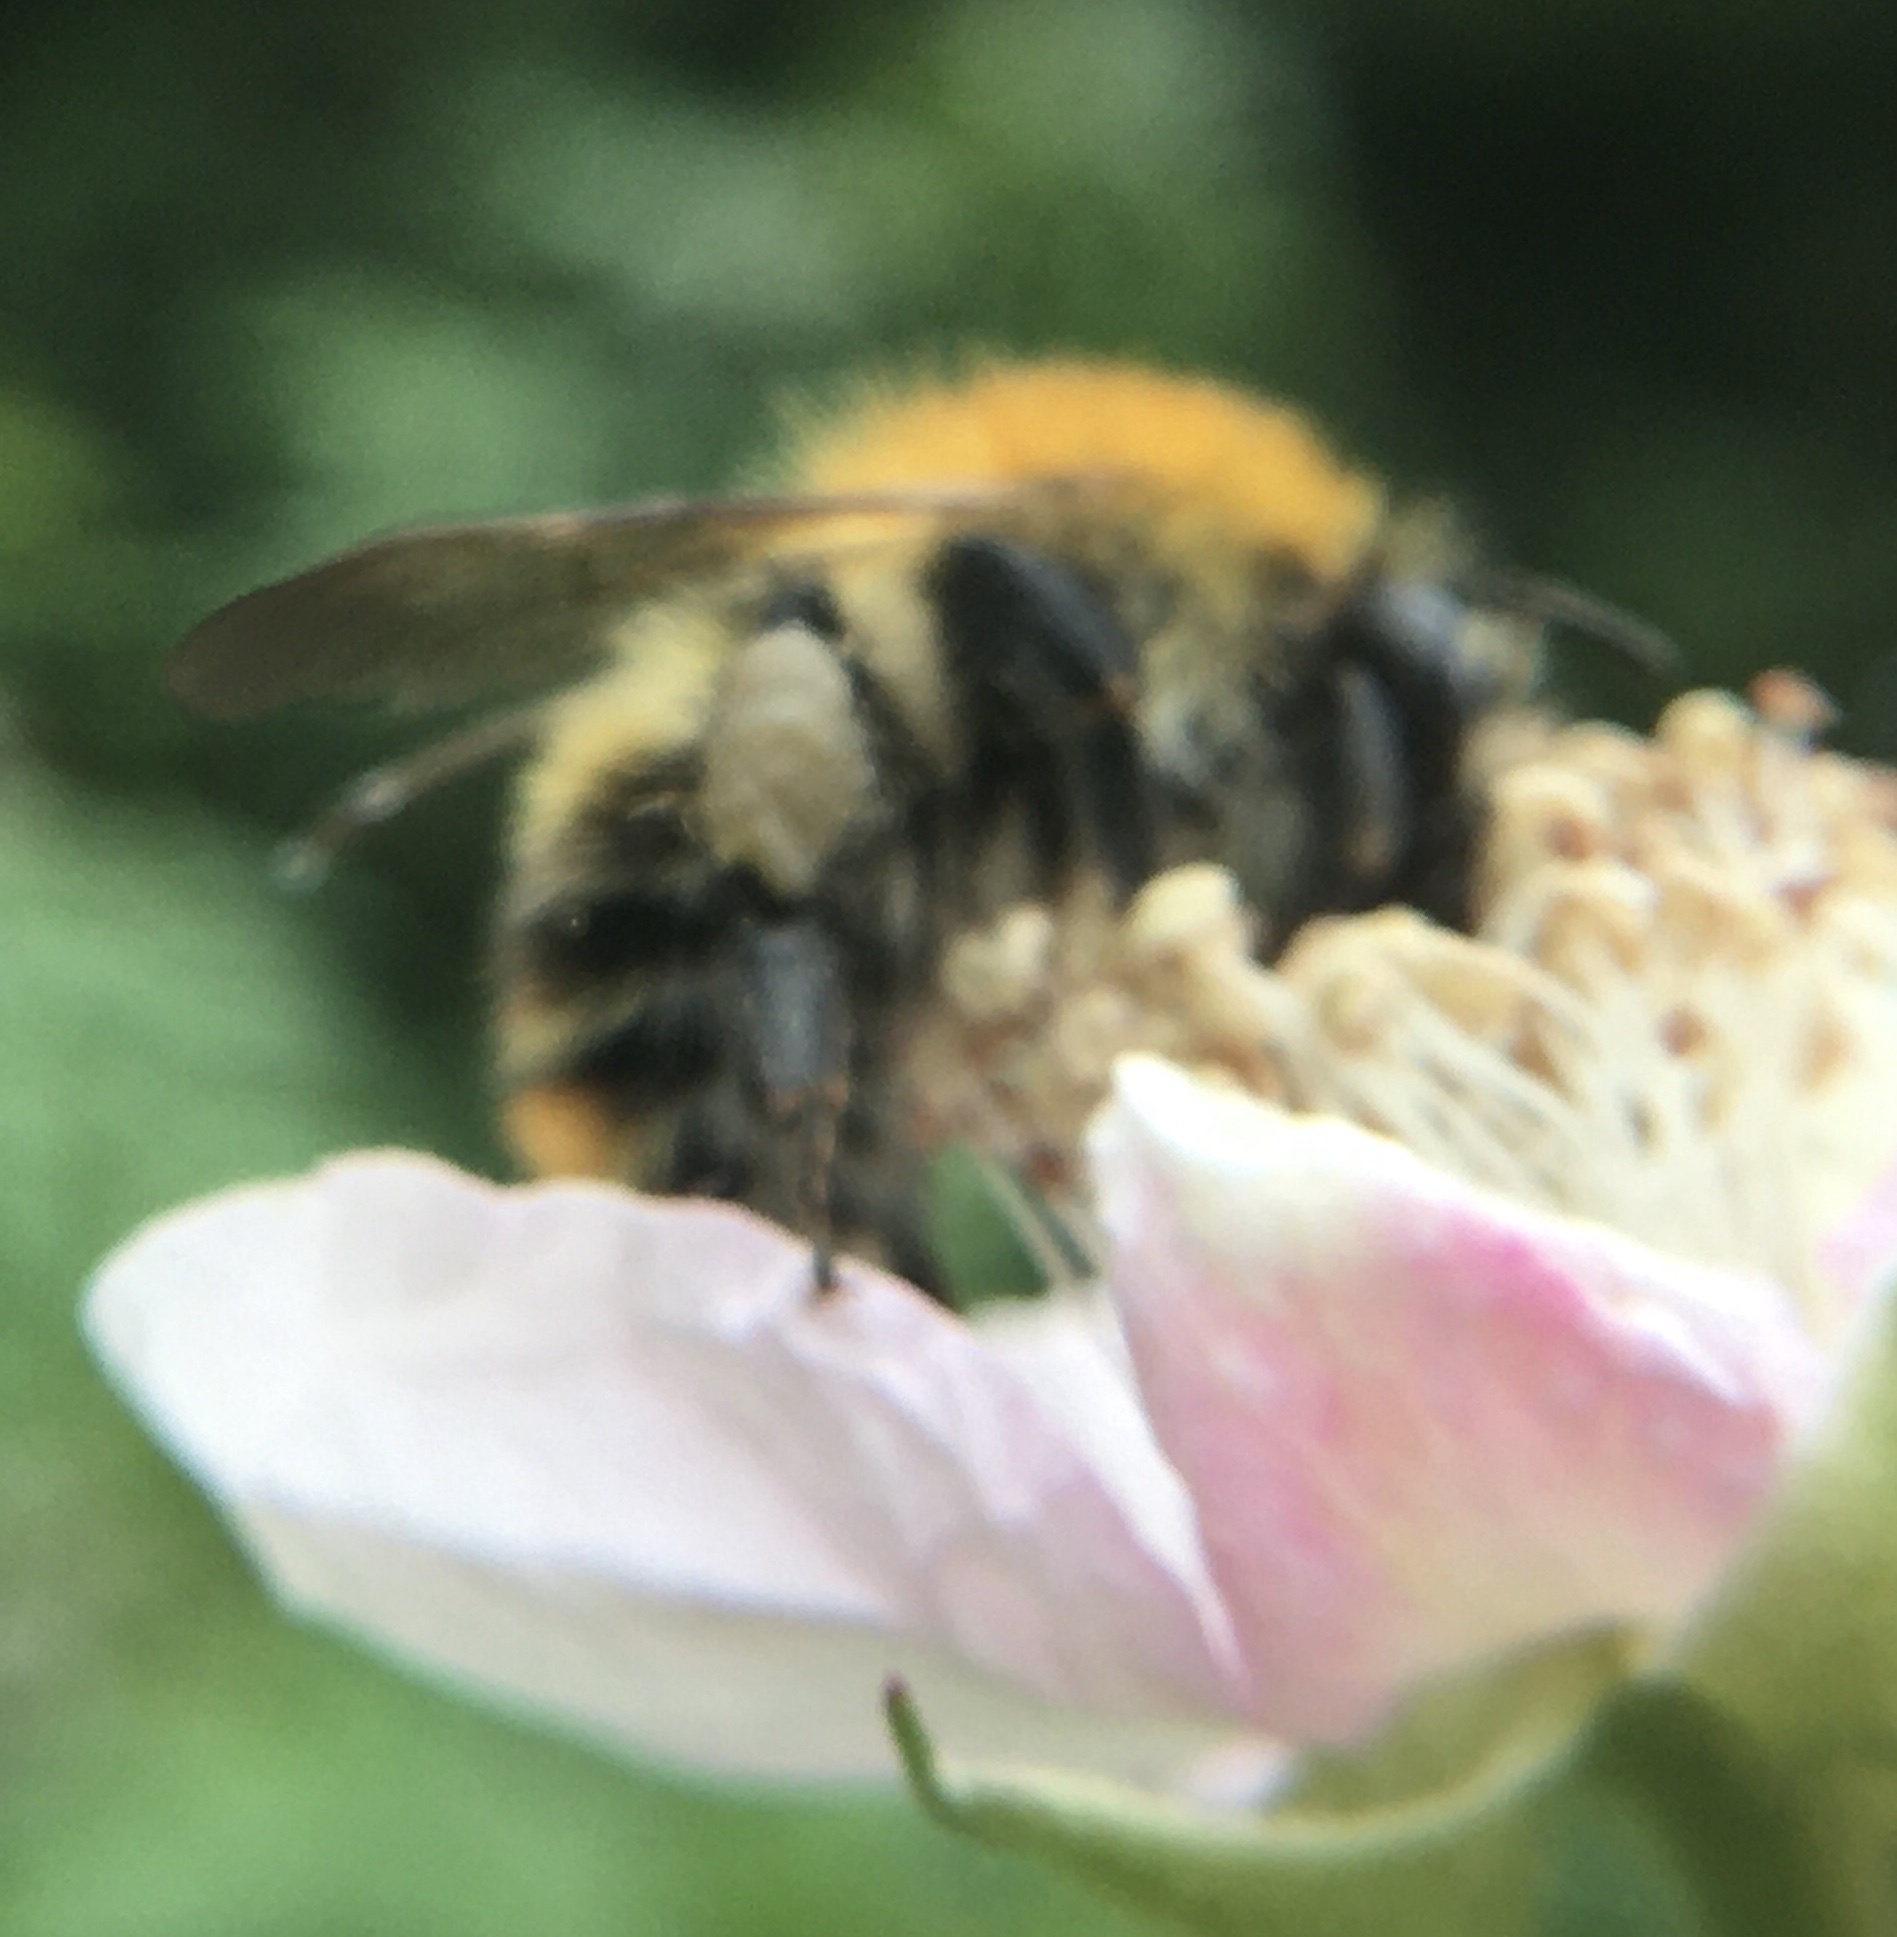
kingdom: Animalia
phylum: Arthropoda
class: Insecta
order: Hymenoptera
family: Apidae
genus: Bombus
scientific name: Bombus pascuorum
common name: Common carder bee
